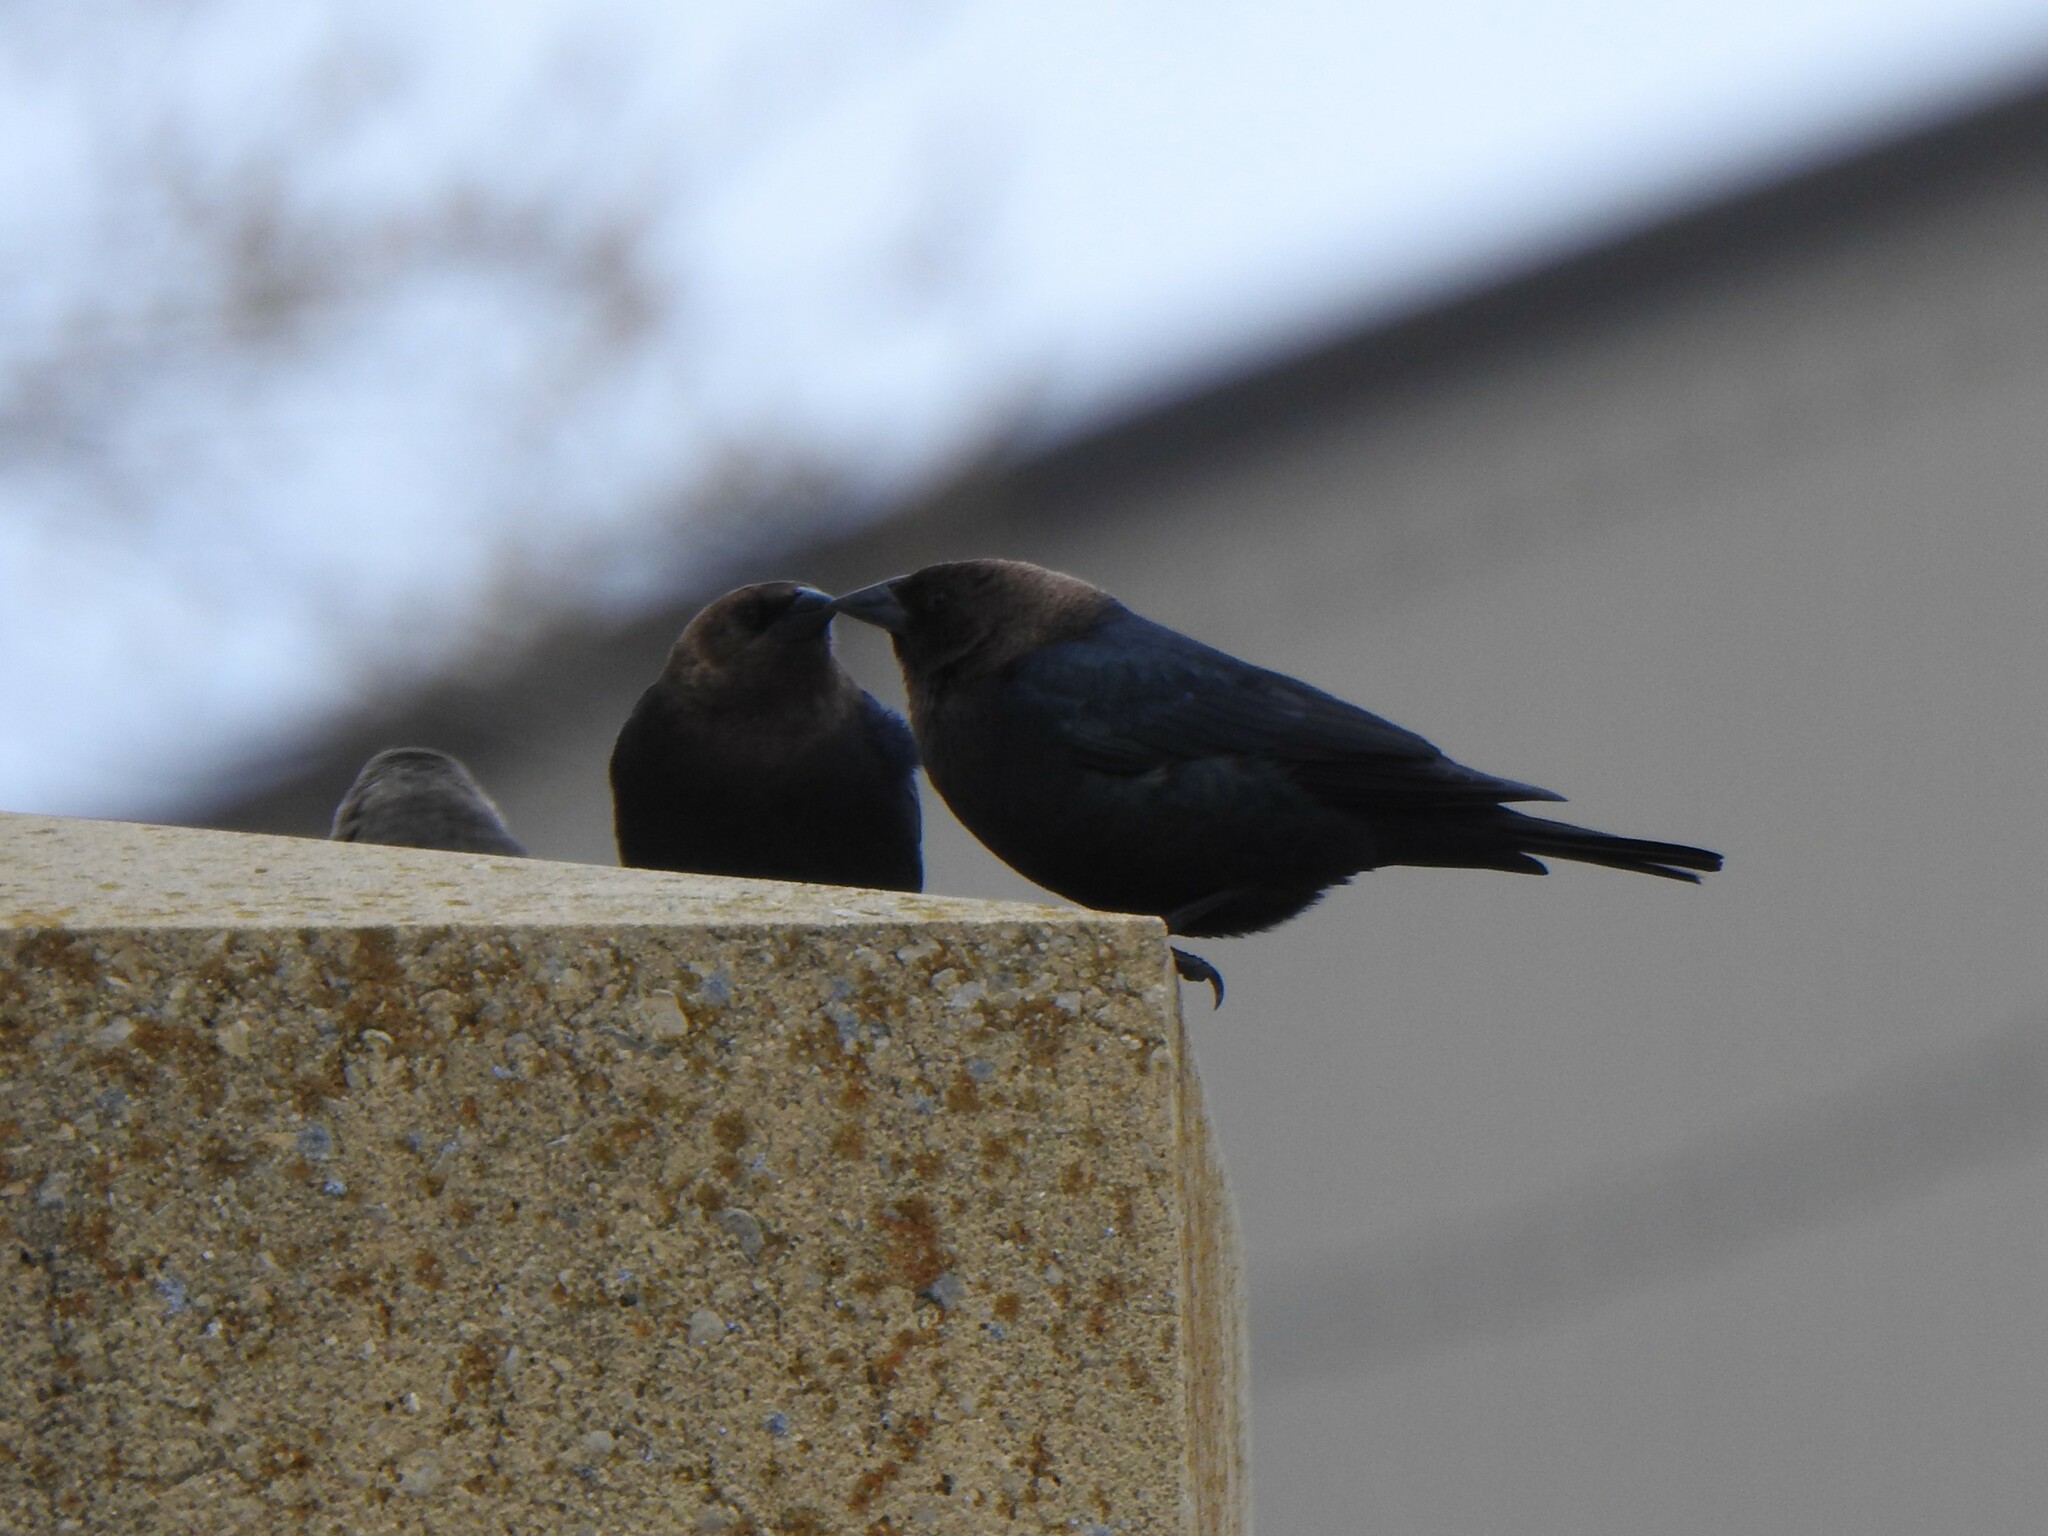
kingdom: Animalia
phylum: Chordata
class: Aves
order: Passeriformes
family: Icteridae
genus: Molothrus
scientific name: Molothrus ater
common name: Brown-headed cowbird
